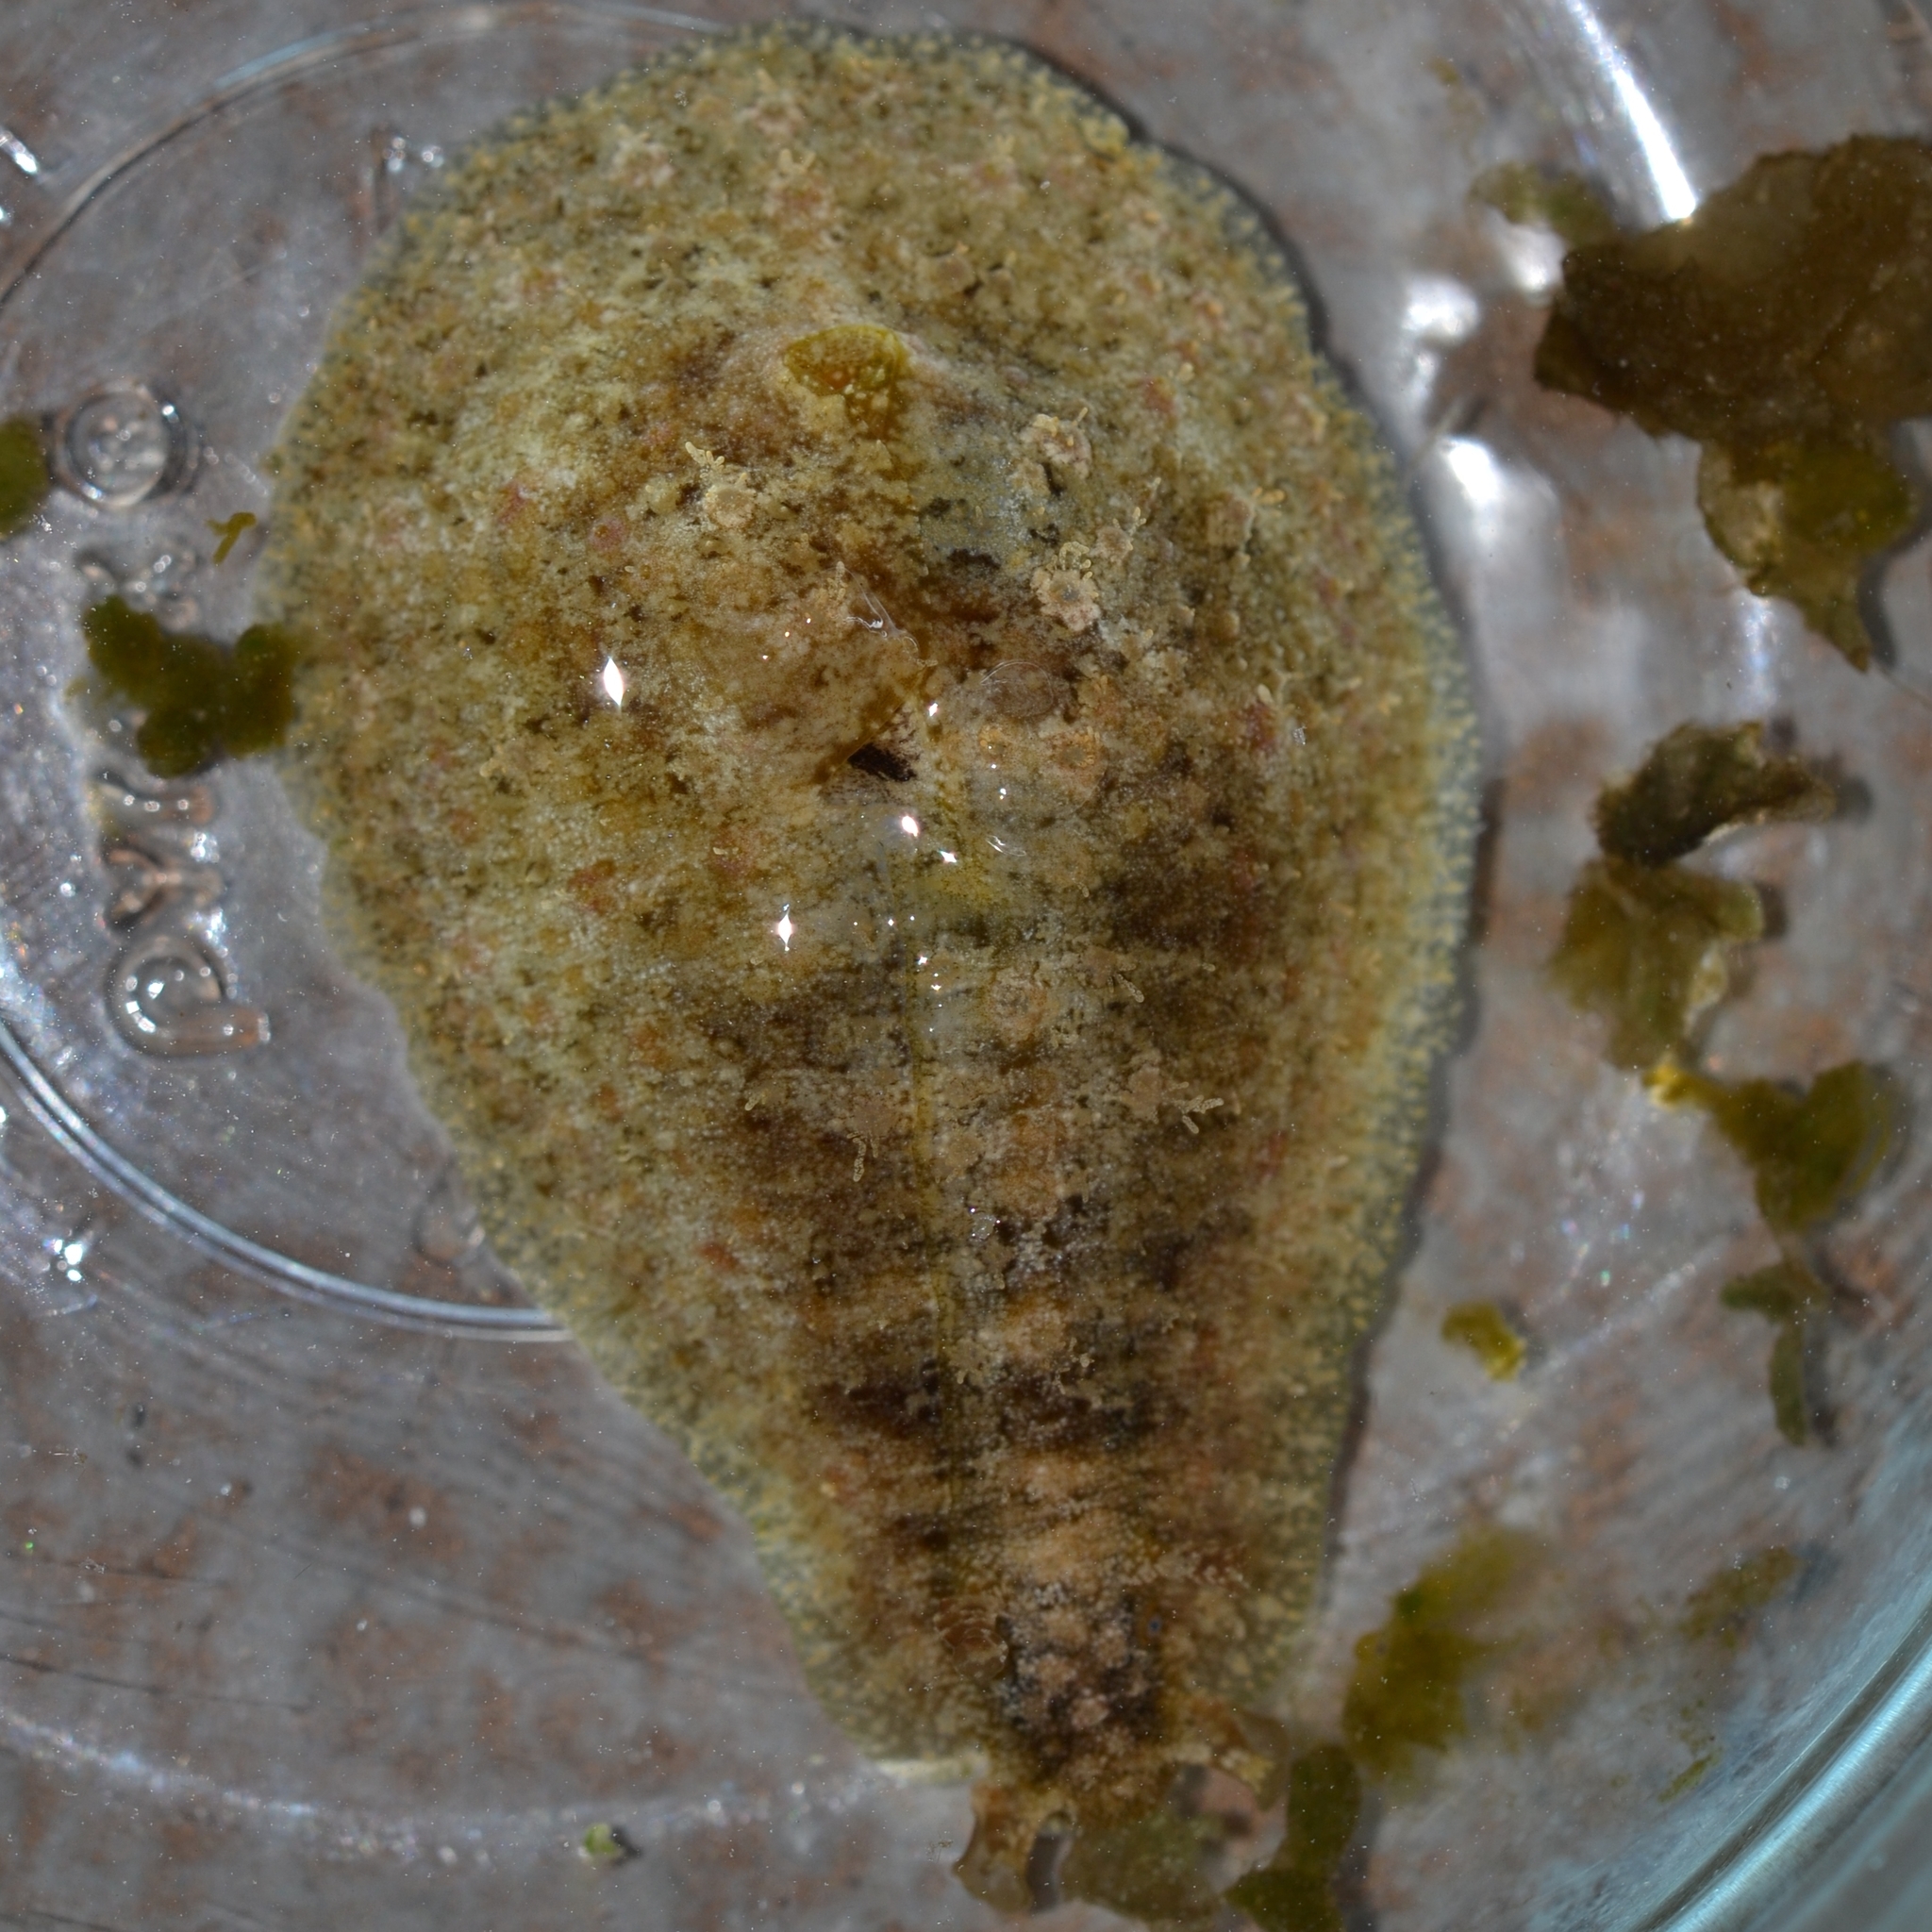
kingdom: Animalia
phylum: Mollusca
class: Gastropoda
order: Aplysiida
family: Aplysiidae
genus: Dolabrifera
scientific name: Dolabrifera dolabrifera
